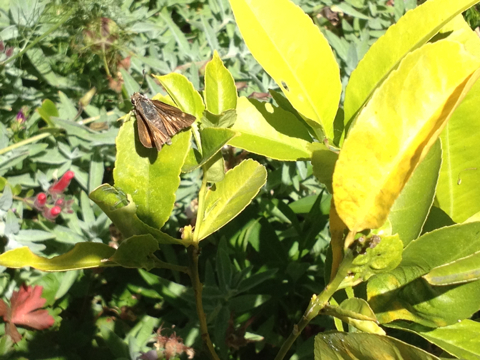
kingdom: Animalia
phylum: Arthropoda
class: Insecta
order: Lepidoptera
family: Hesperiidae
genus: Lon
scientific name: Lon melane
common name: Umber skipper
